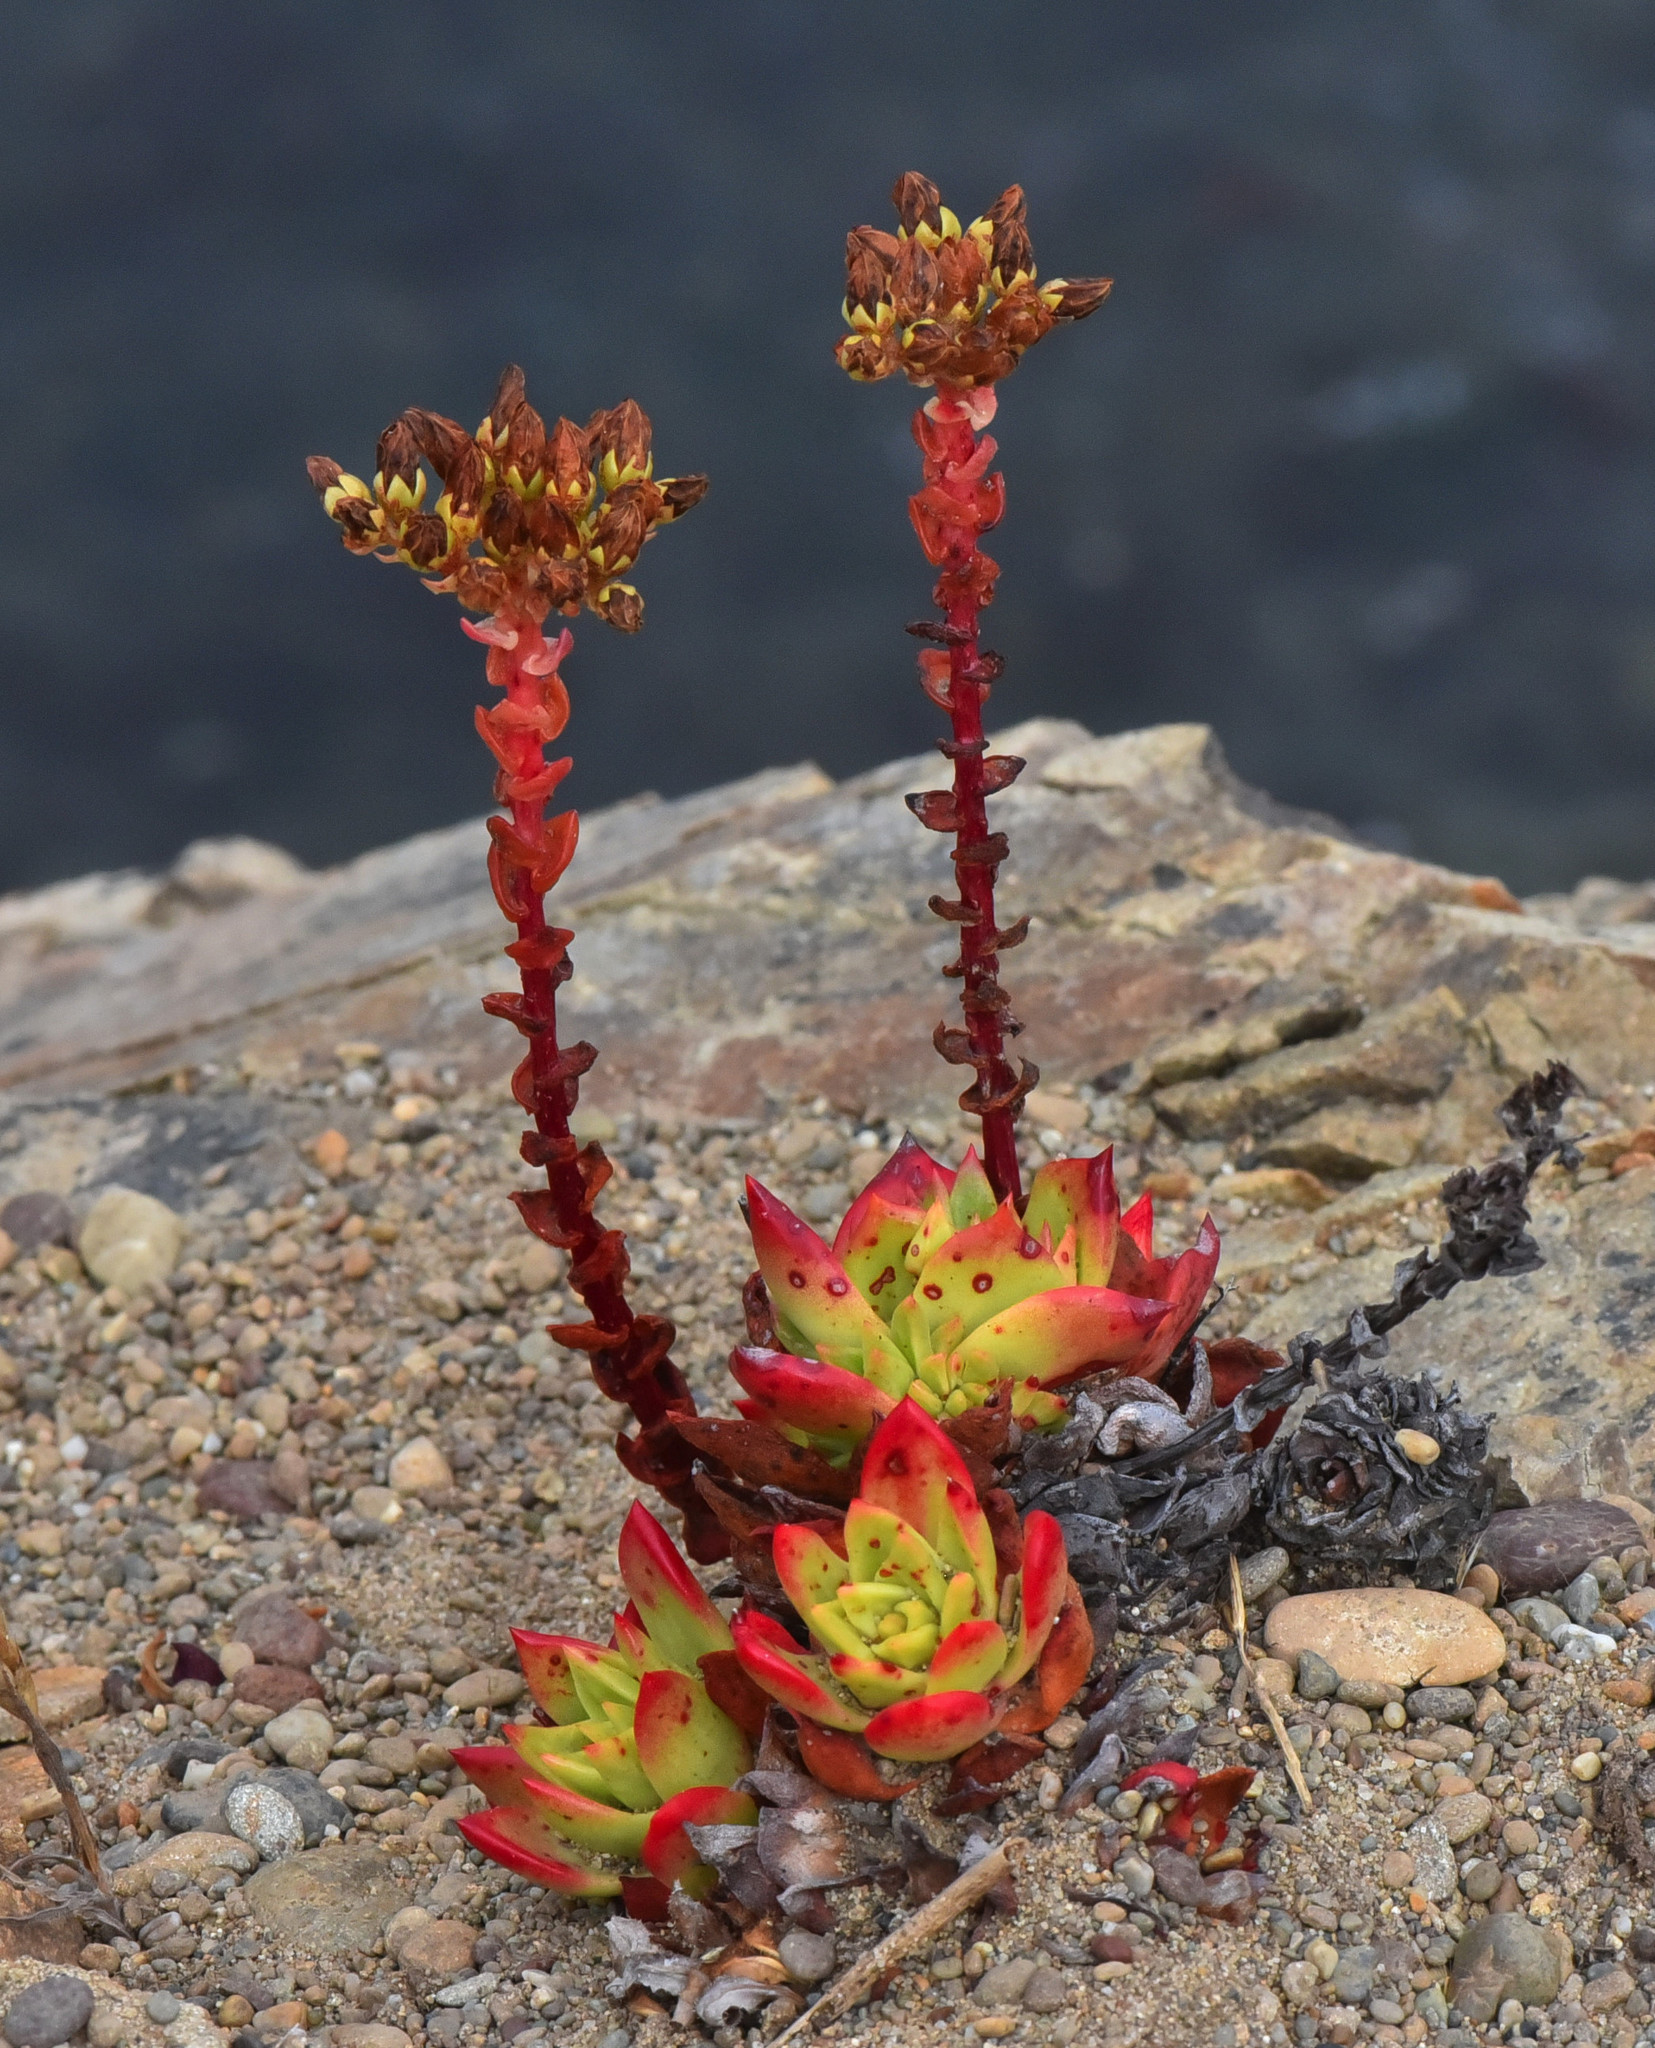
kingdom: Plantae
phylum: Tracheophyta
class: Magnoliopsida
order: Saxifragales
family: Crassulaceae
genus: Dudleya
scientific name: Dudleya farinosa
